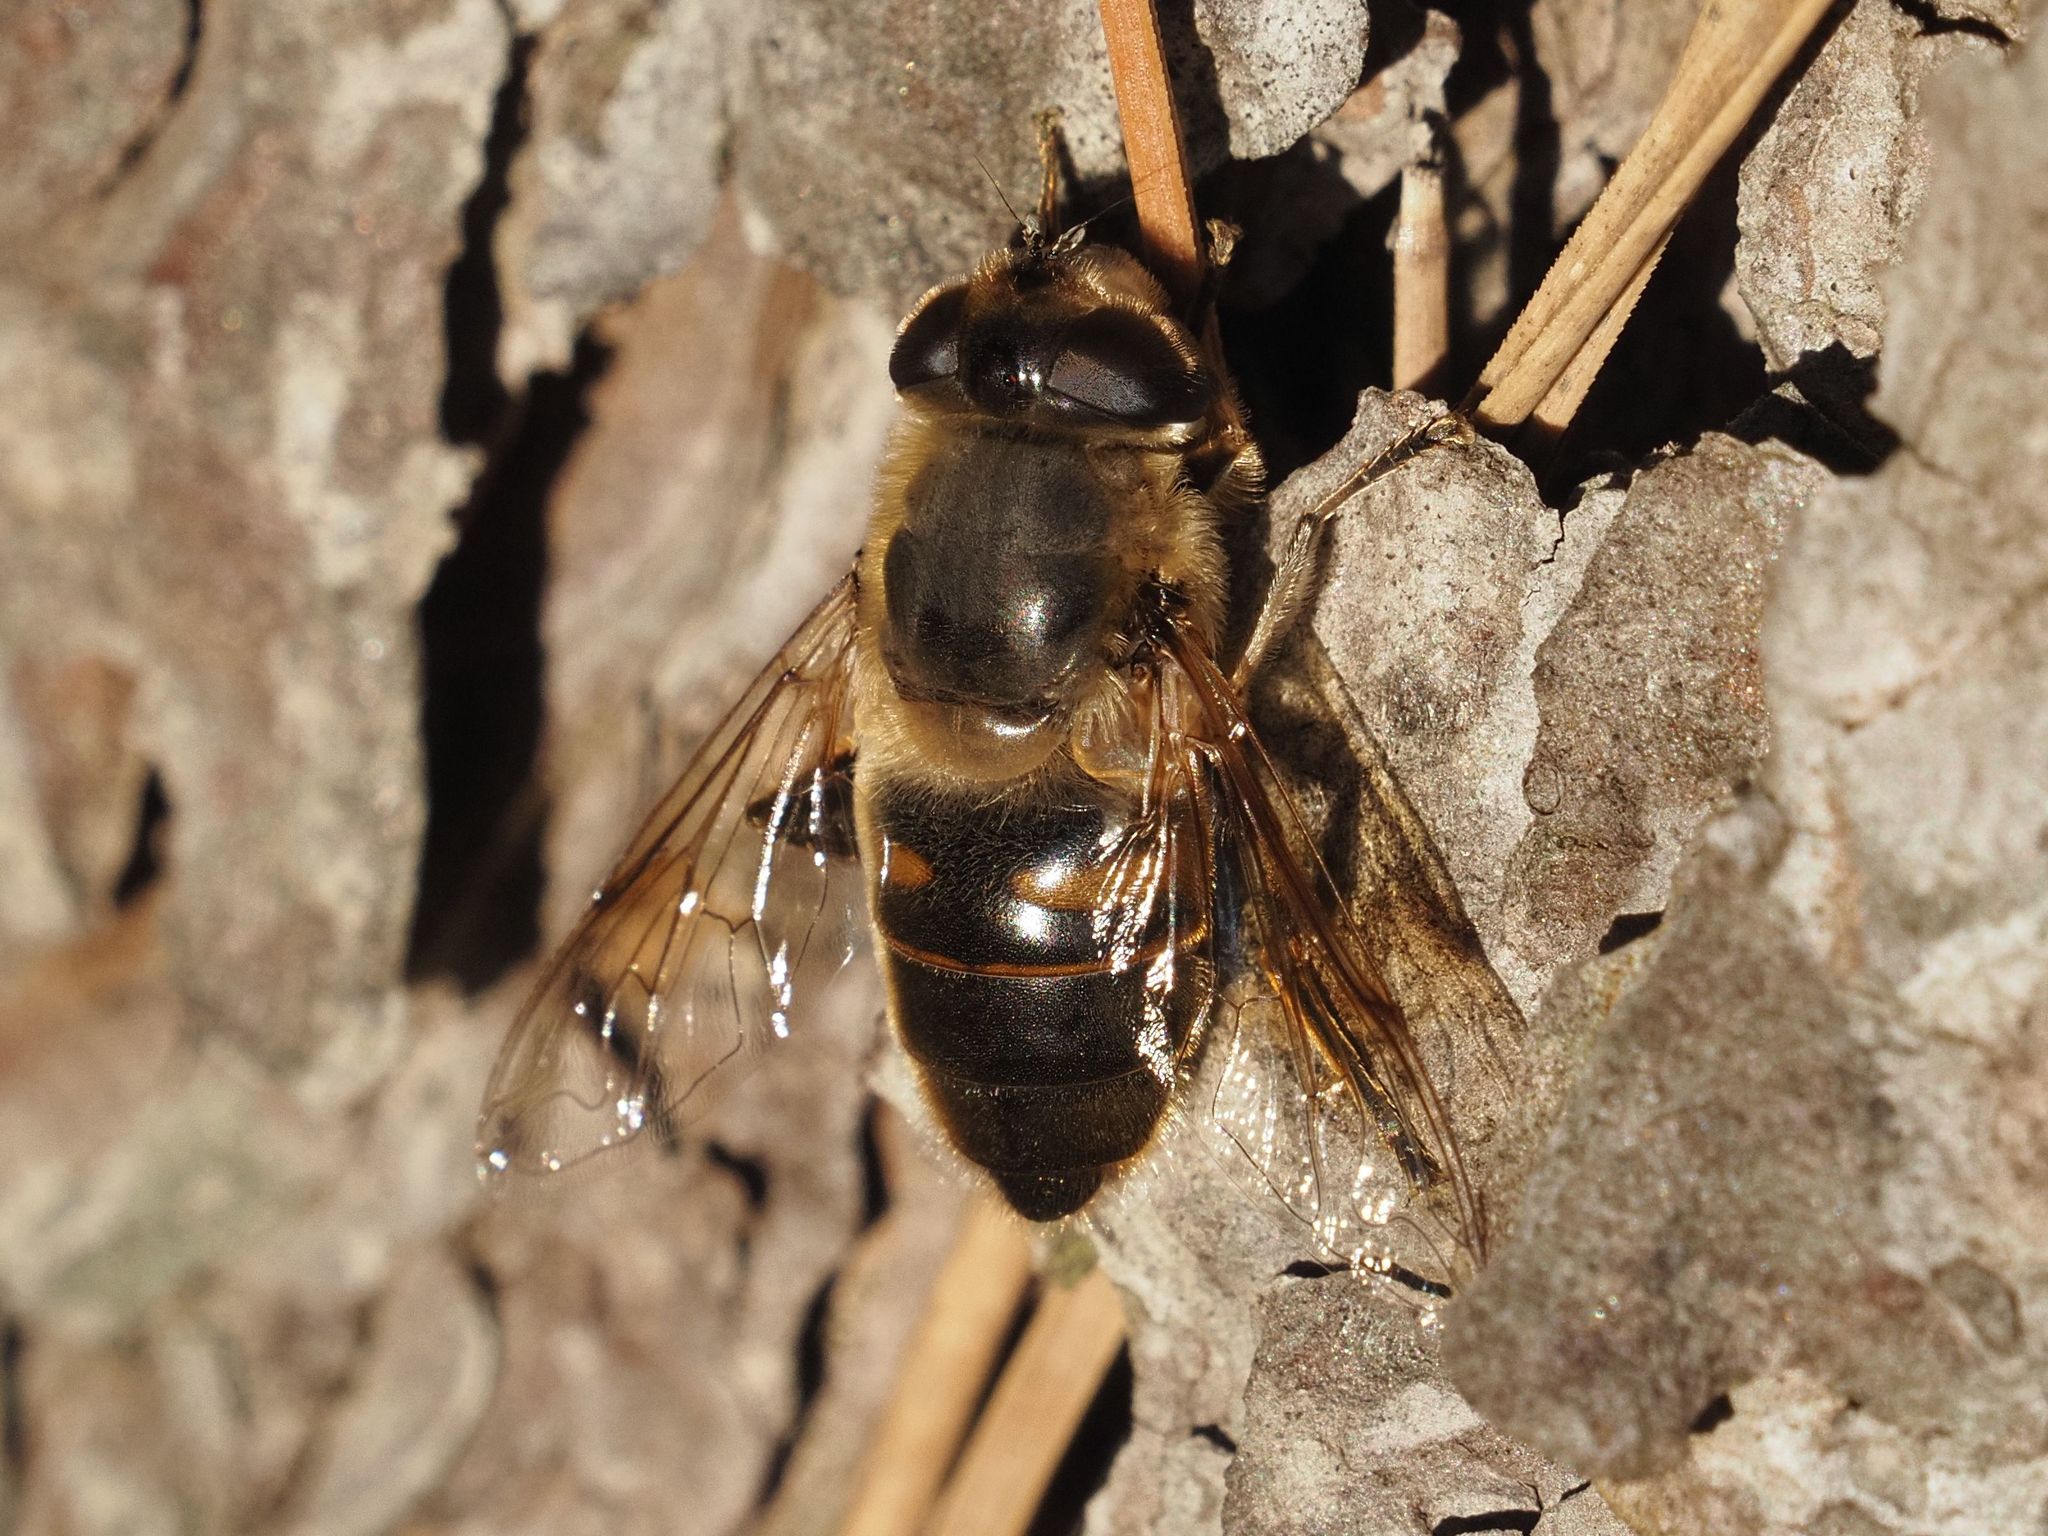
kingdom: Animalia
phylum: Arthropoda
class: Insecta
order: Diptera
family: Syrphidae
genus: Eristalis
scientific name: Eristalis tenax
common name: Drone fly
